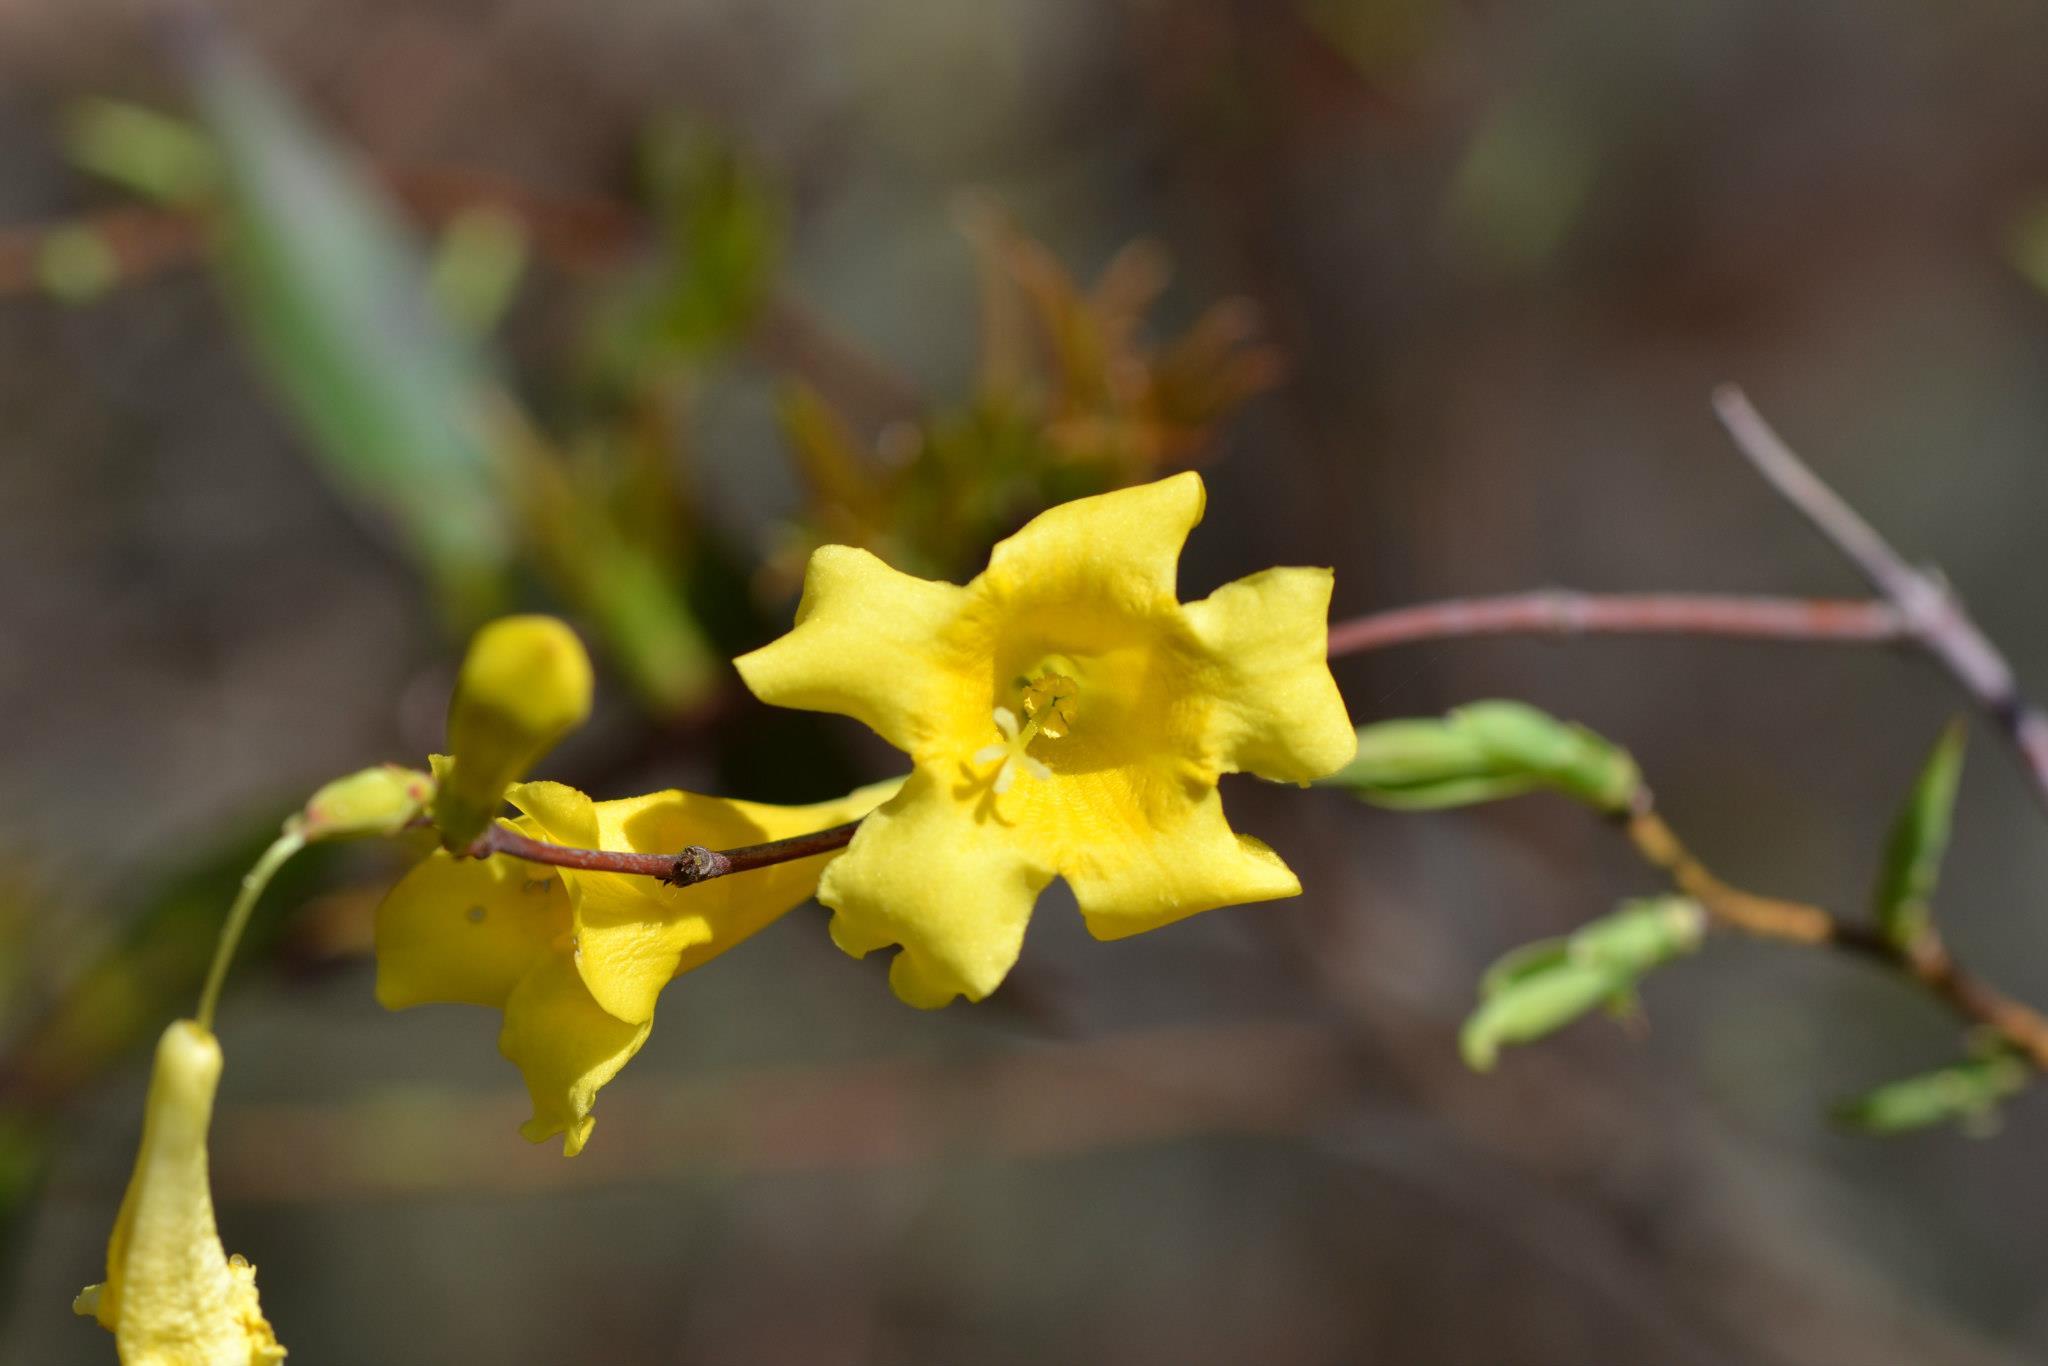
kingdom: Plantae
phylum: Tracheophyta
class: Magnoliopsida
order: Gentianales
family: Gelsemiaceae
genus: Gelsemium
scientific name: Gelsemium sempervirens
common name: Carolina-jasmine
